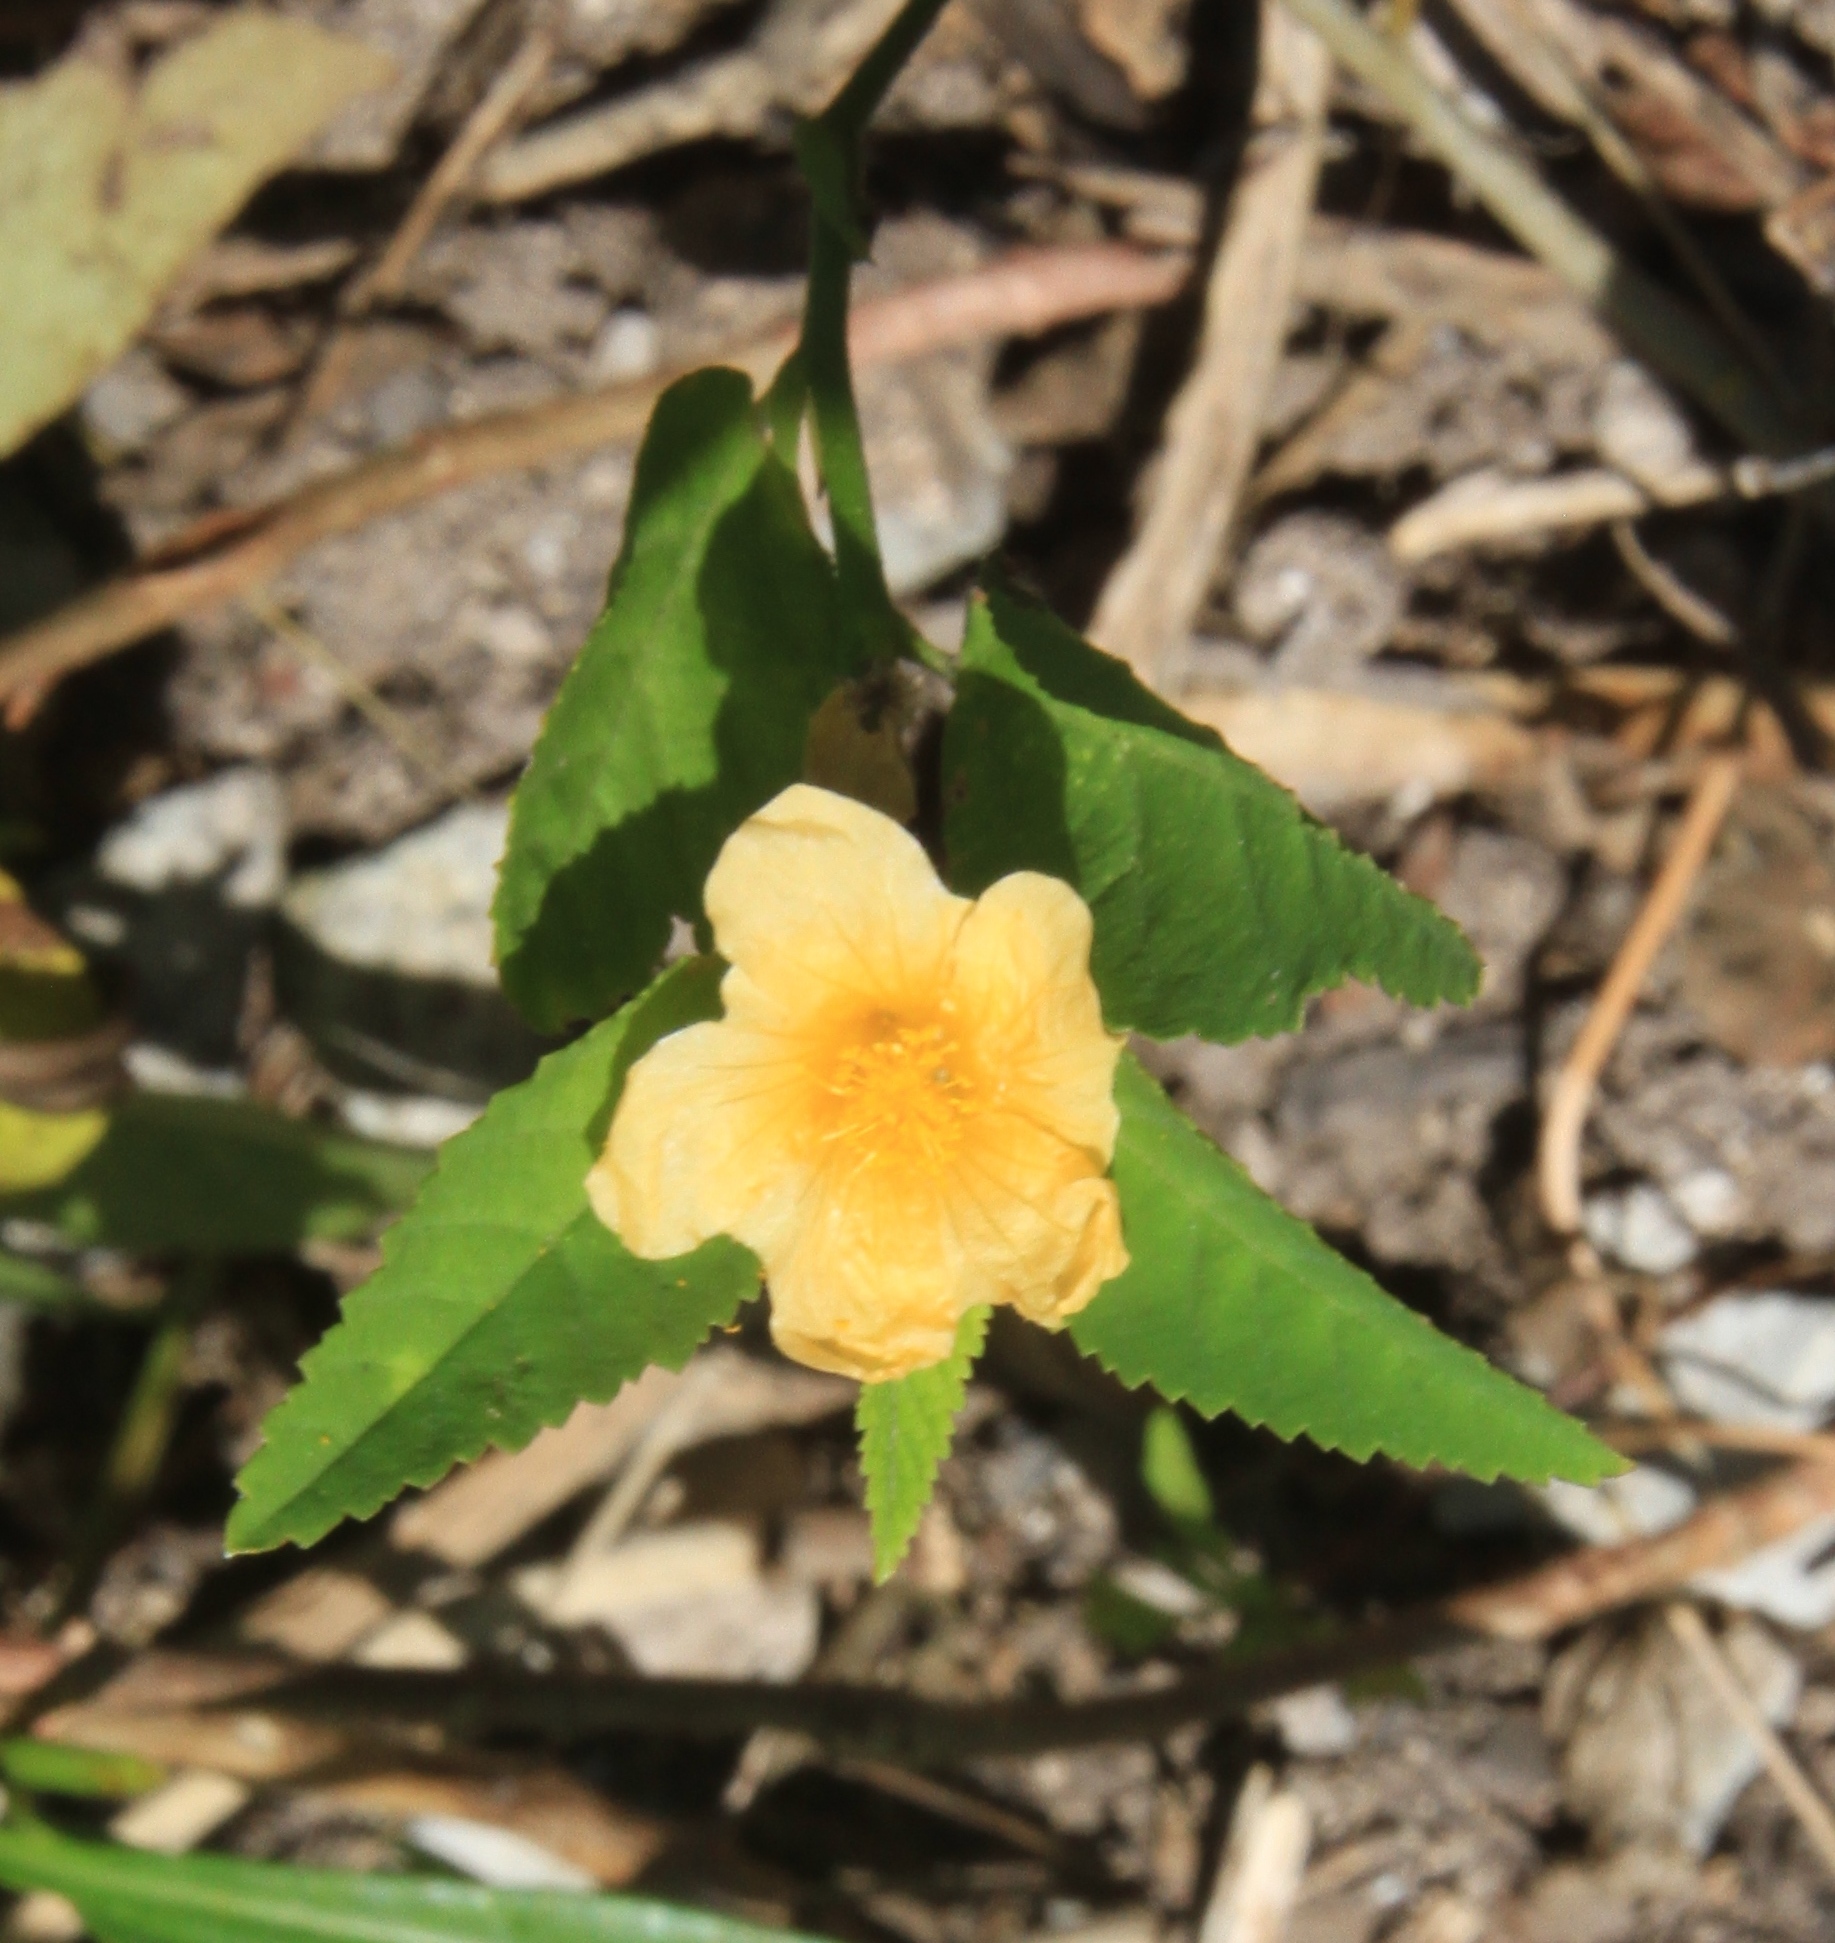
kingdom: Plantae
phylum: Tracheophyta
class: Magnoliopsida
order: Malvales
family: Malvaceae
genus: Sida
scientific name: Sida cordifolia
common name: Ilima
